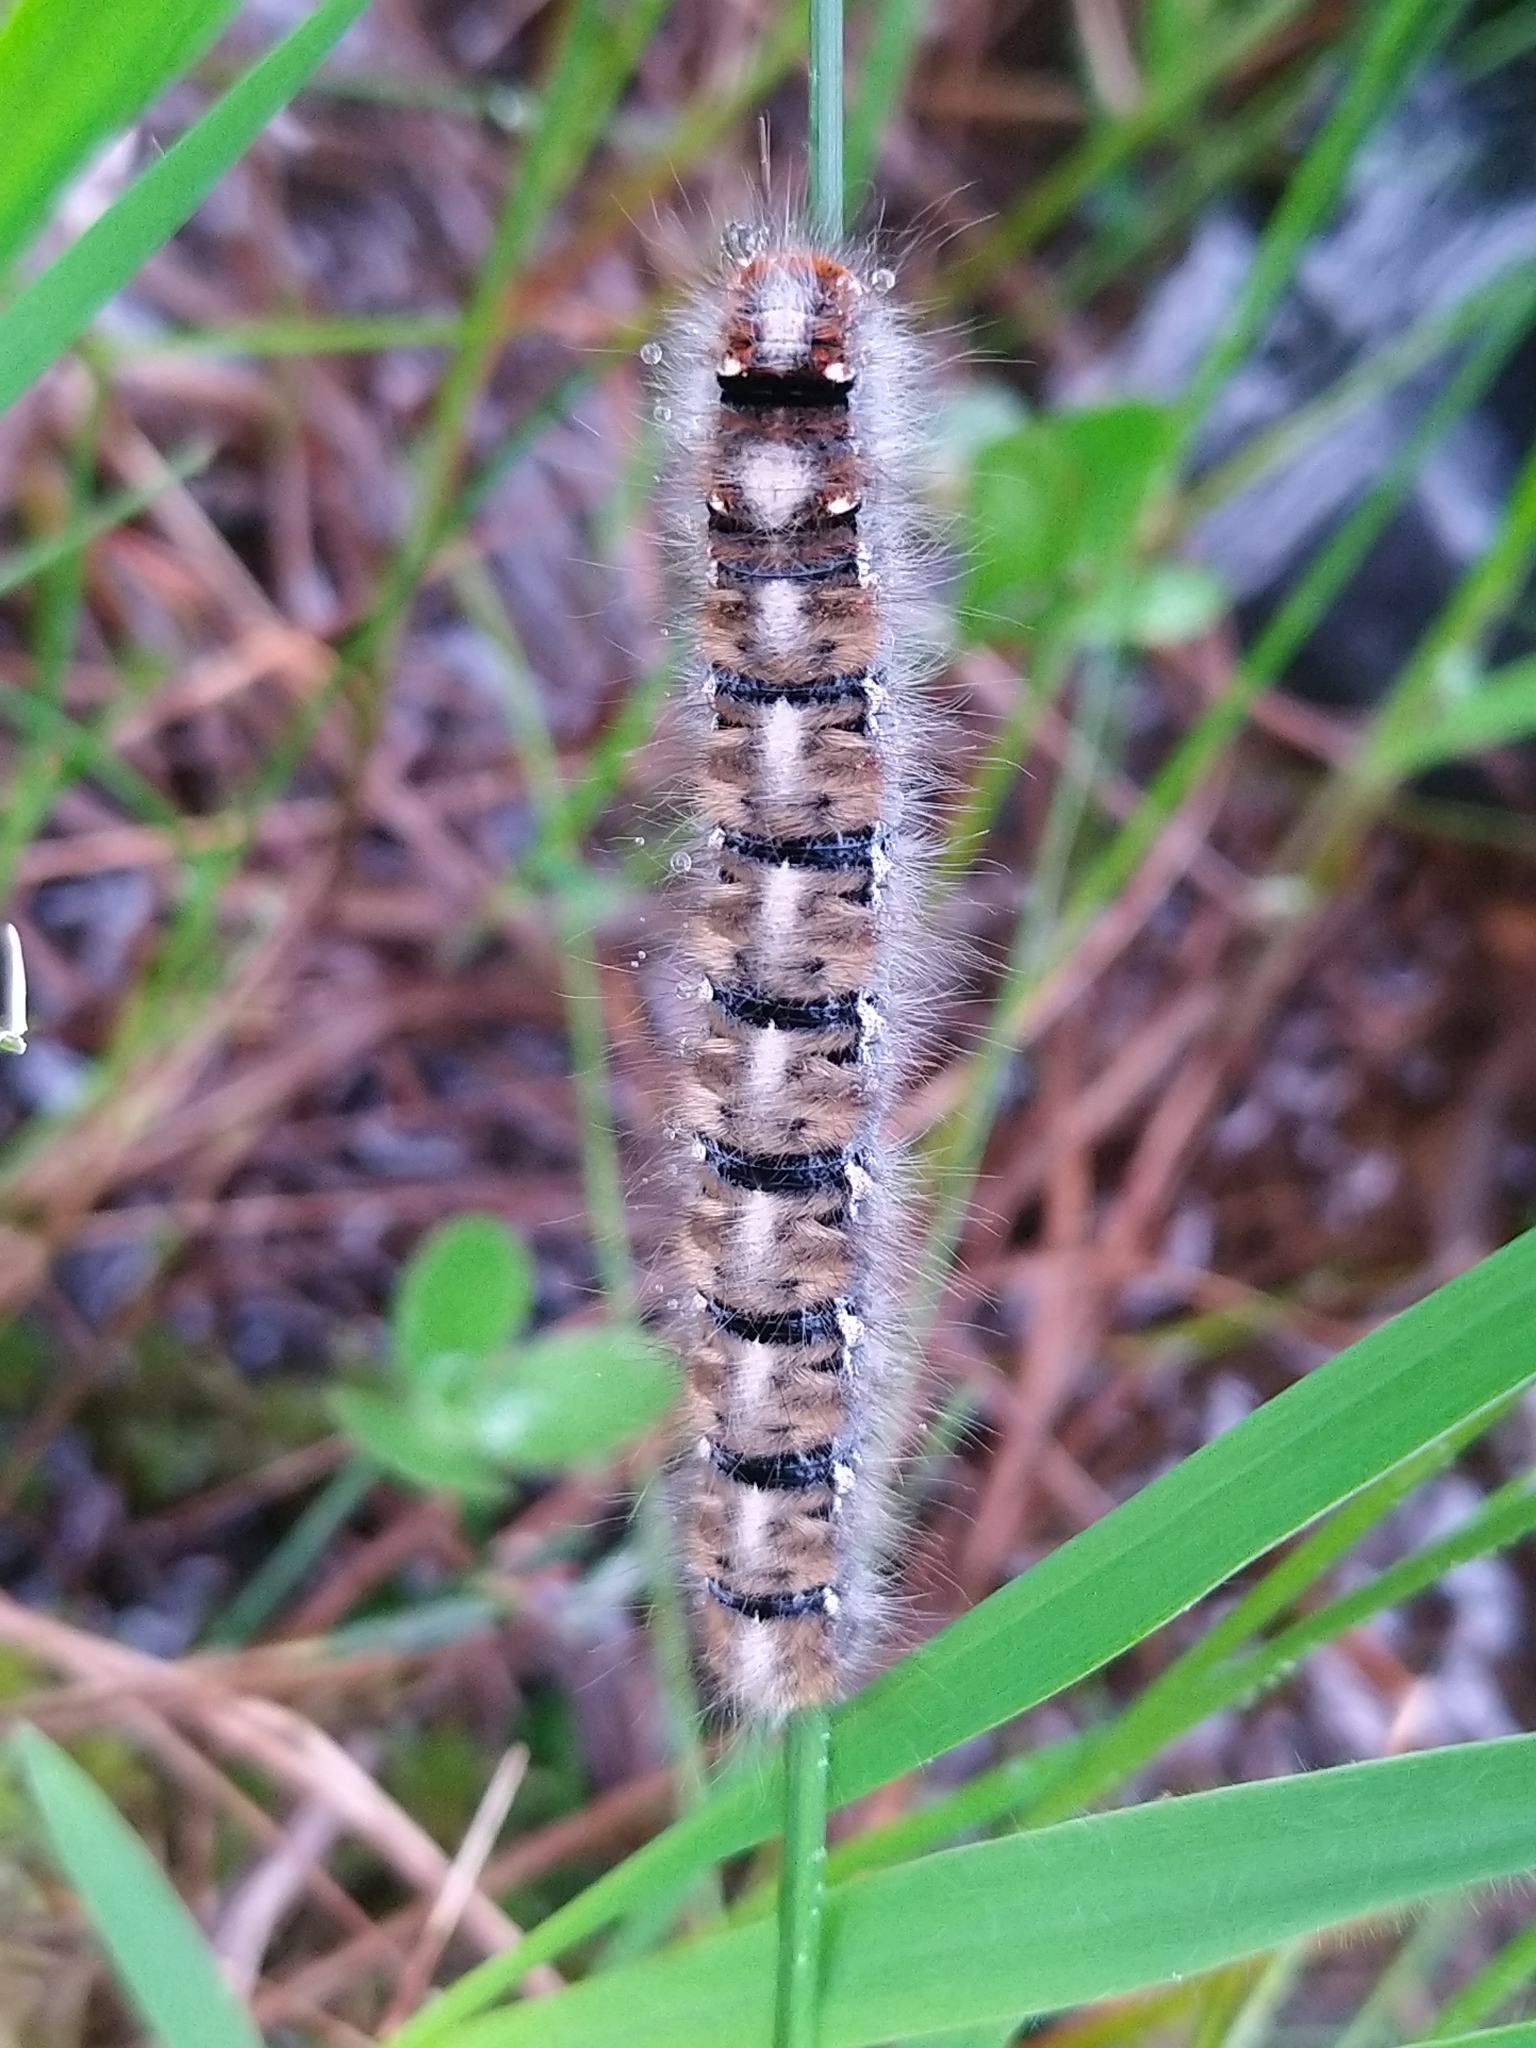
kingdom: Animalia
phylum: Arthropoda
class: Insecta
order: Lepidoptera
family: Lasiocampidae
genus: Lasiocampa
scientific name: Lasiocampa quercus
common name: Oak eggar
